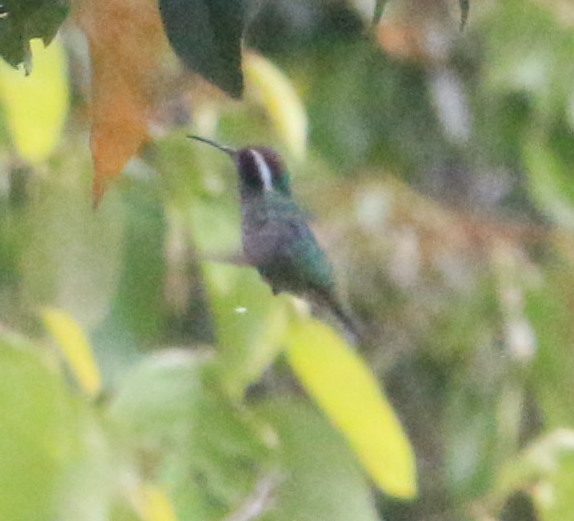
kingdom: Animalia
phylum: Chordata
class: Aves
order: Apodiformes
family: Trochilidae
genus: Basilinna
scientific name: Basilinna leucotis
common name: White-eared hummingbird
